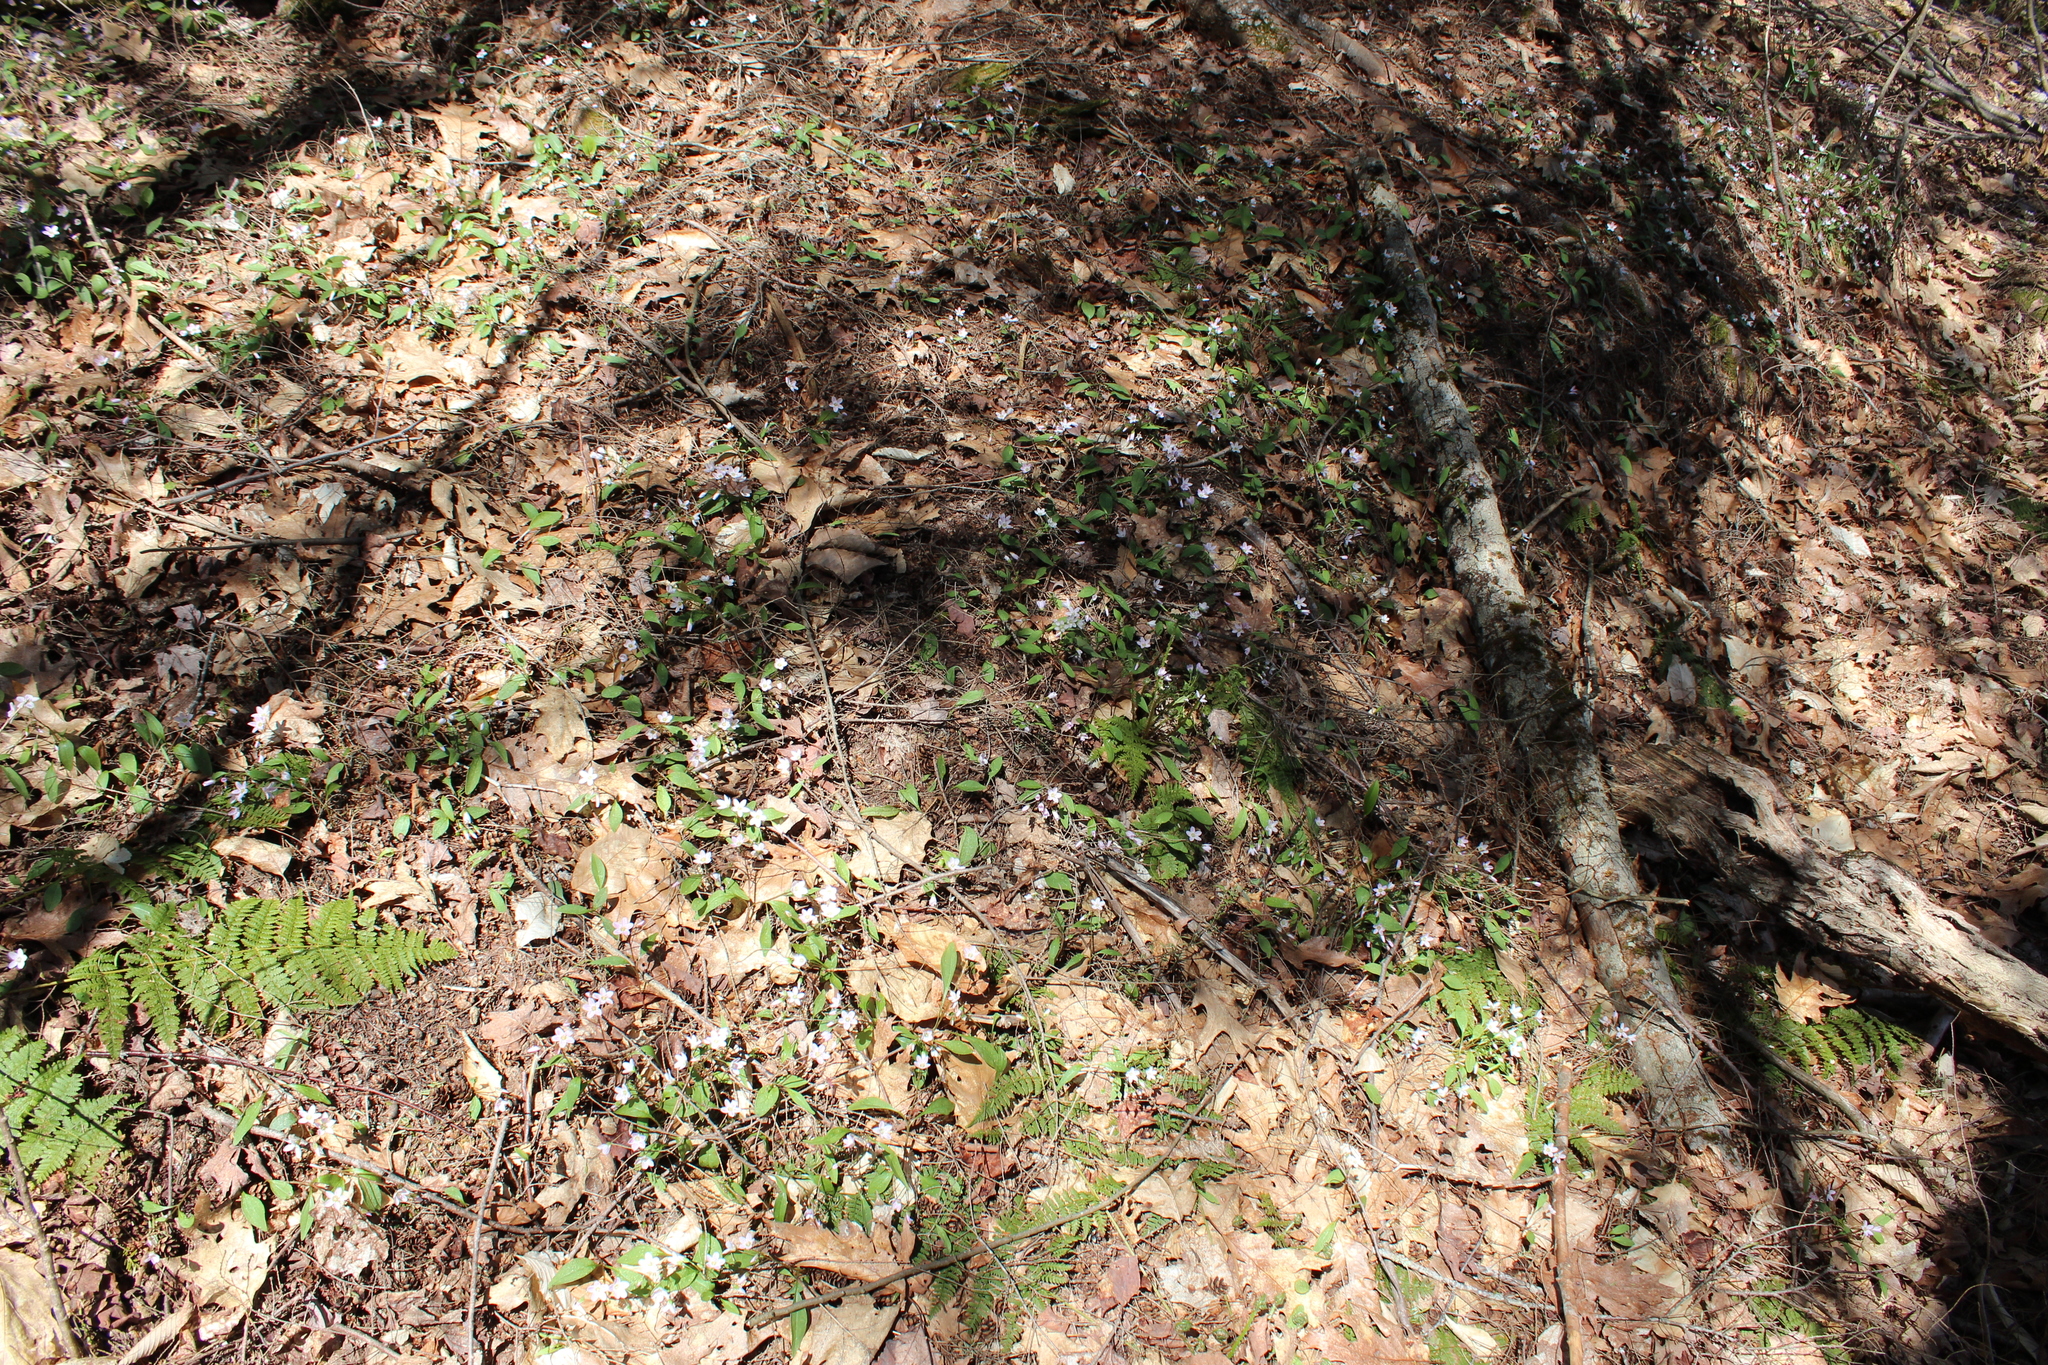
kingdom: Plantae
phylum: Tracheophyta
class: Magnoliopsida
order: Caryophyllales
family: Montiaceae
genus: Claytonia
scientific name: Claytonia caroliniana
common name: Carolina spring beauty
